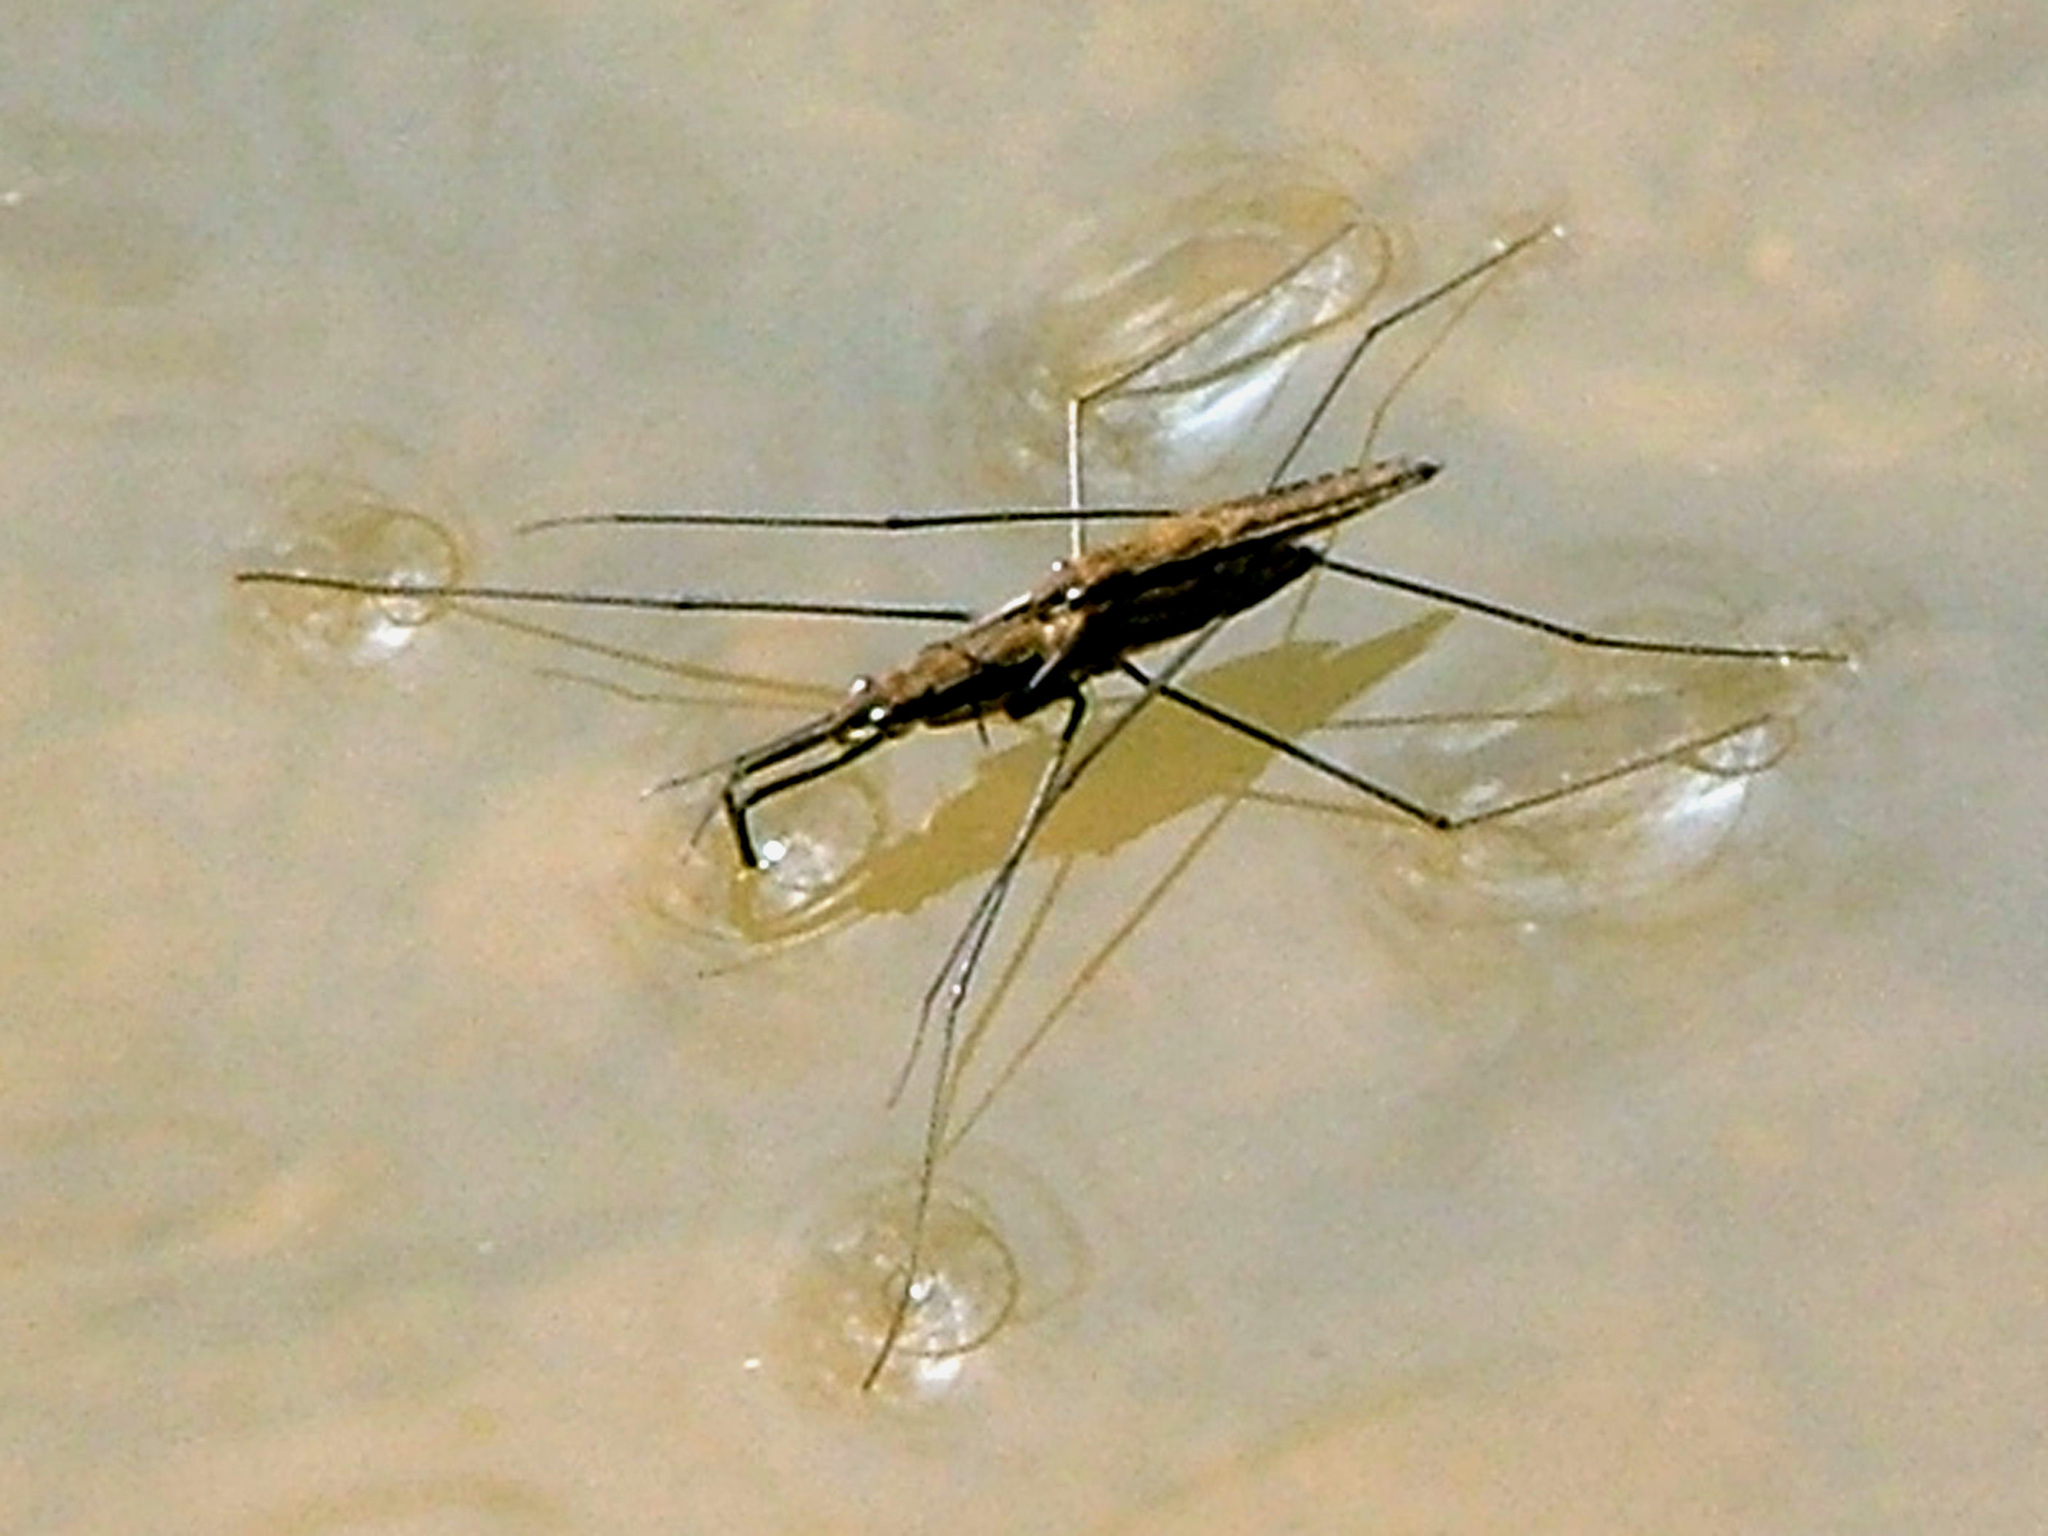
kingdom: Animalia
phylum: Arthropoda
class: Insecta
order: Hemiptera
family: Gerridae
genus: Aquarius
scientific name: Aquarius paludum
